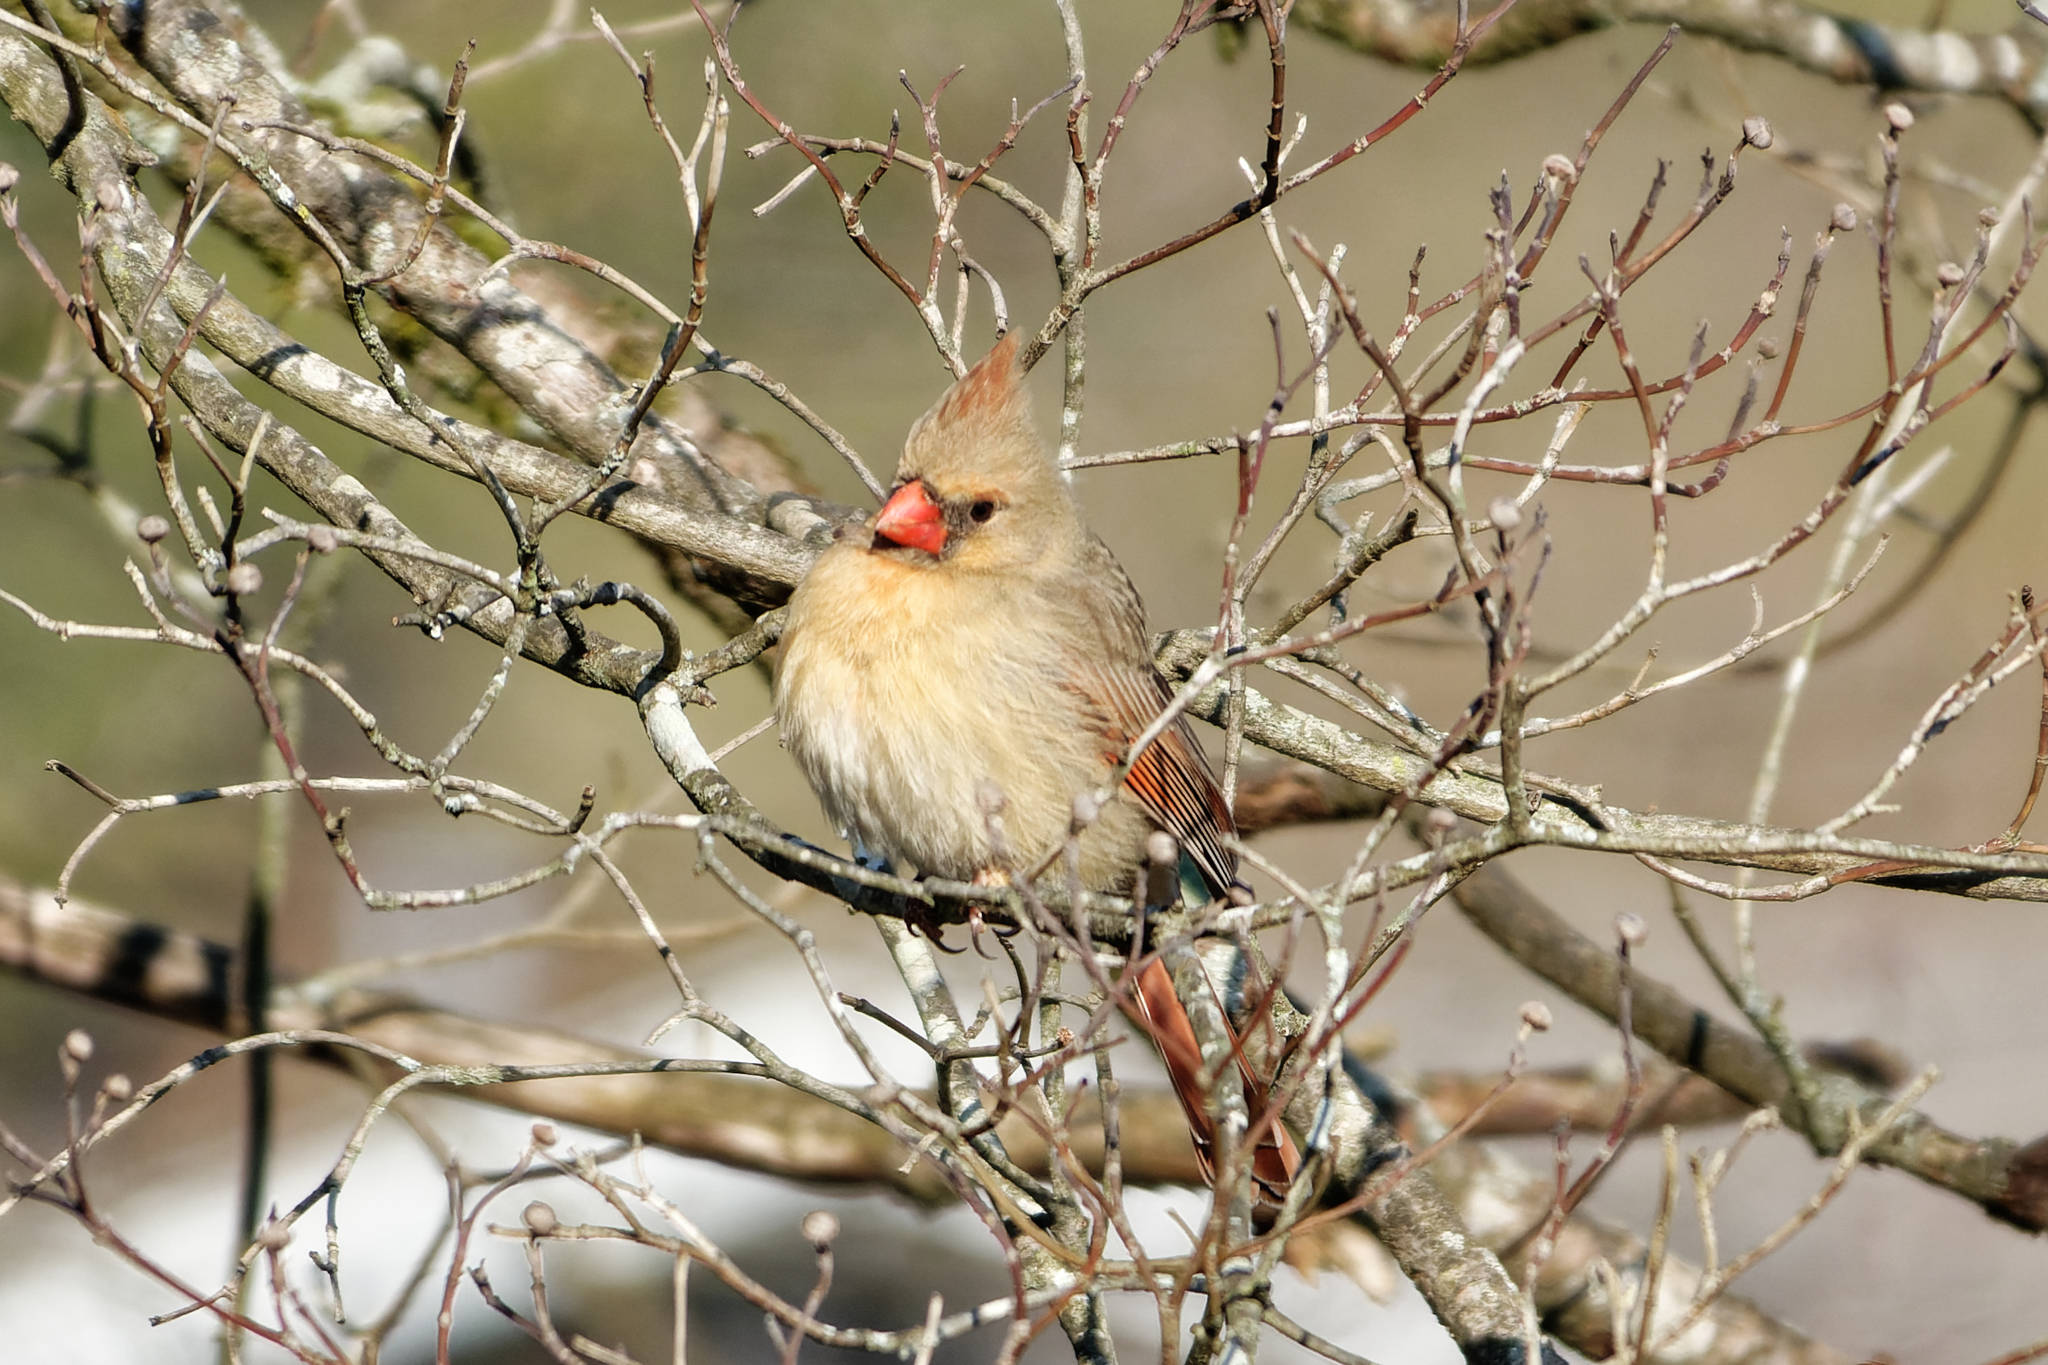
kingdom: Animalia
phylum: Chordata
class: Aves
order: Passeriformes
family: Cardinalidae
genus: Cardinalis
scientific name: Cardinalis cardinalis
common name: Northern cardinal
